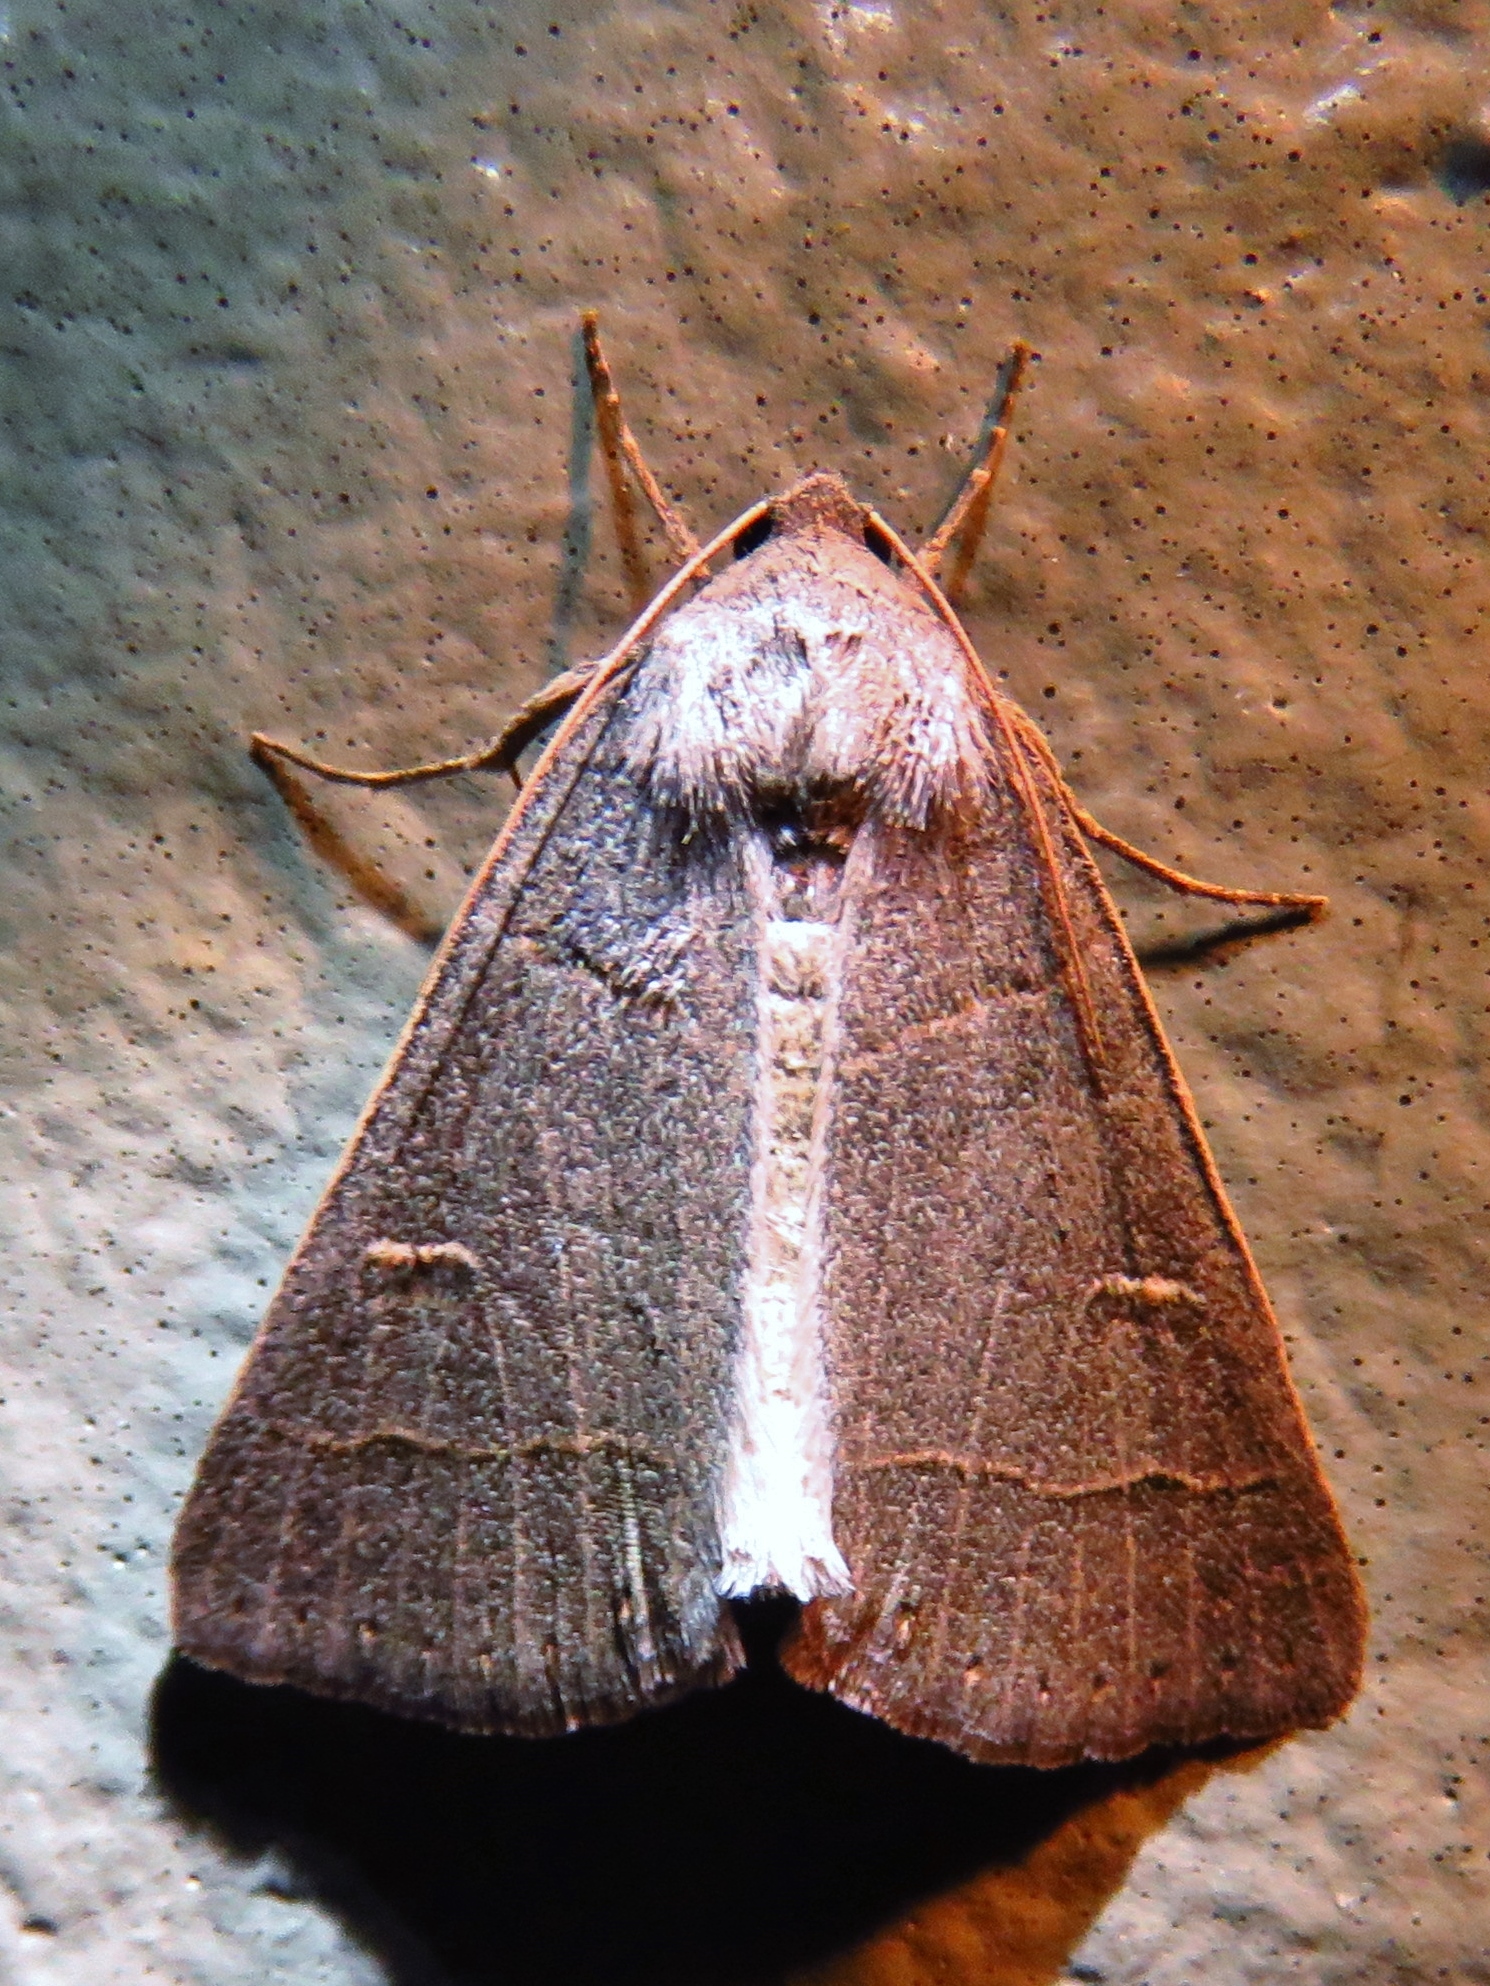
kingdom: Animalia
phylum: Arthropoda
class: Insecta
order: Lepidoptera
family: Erebidae
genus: Phoberia
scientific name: Phoberia atomaris
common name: Common oak moth
